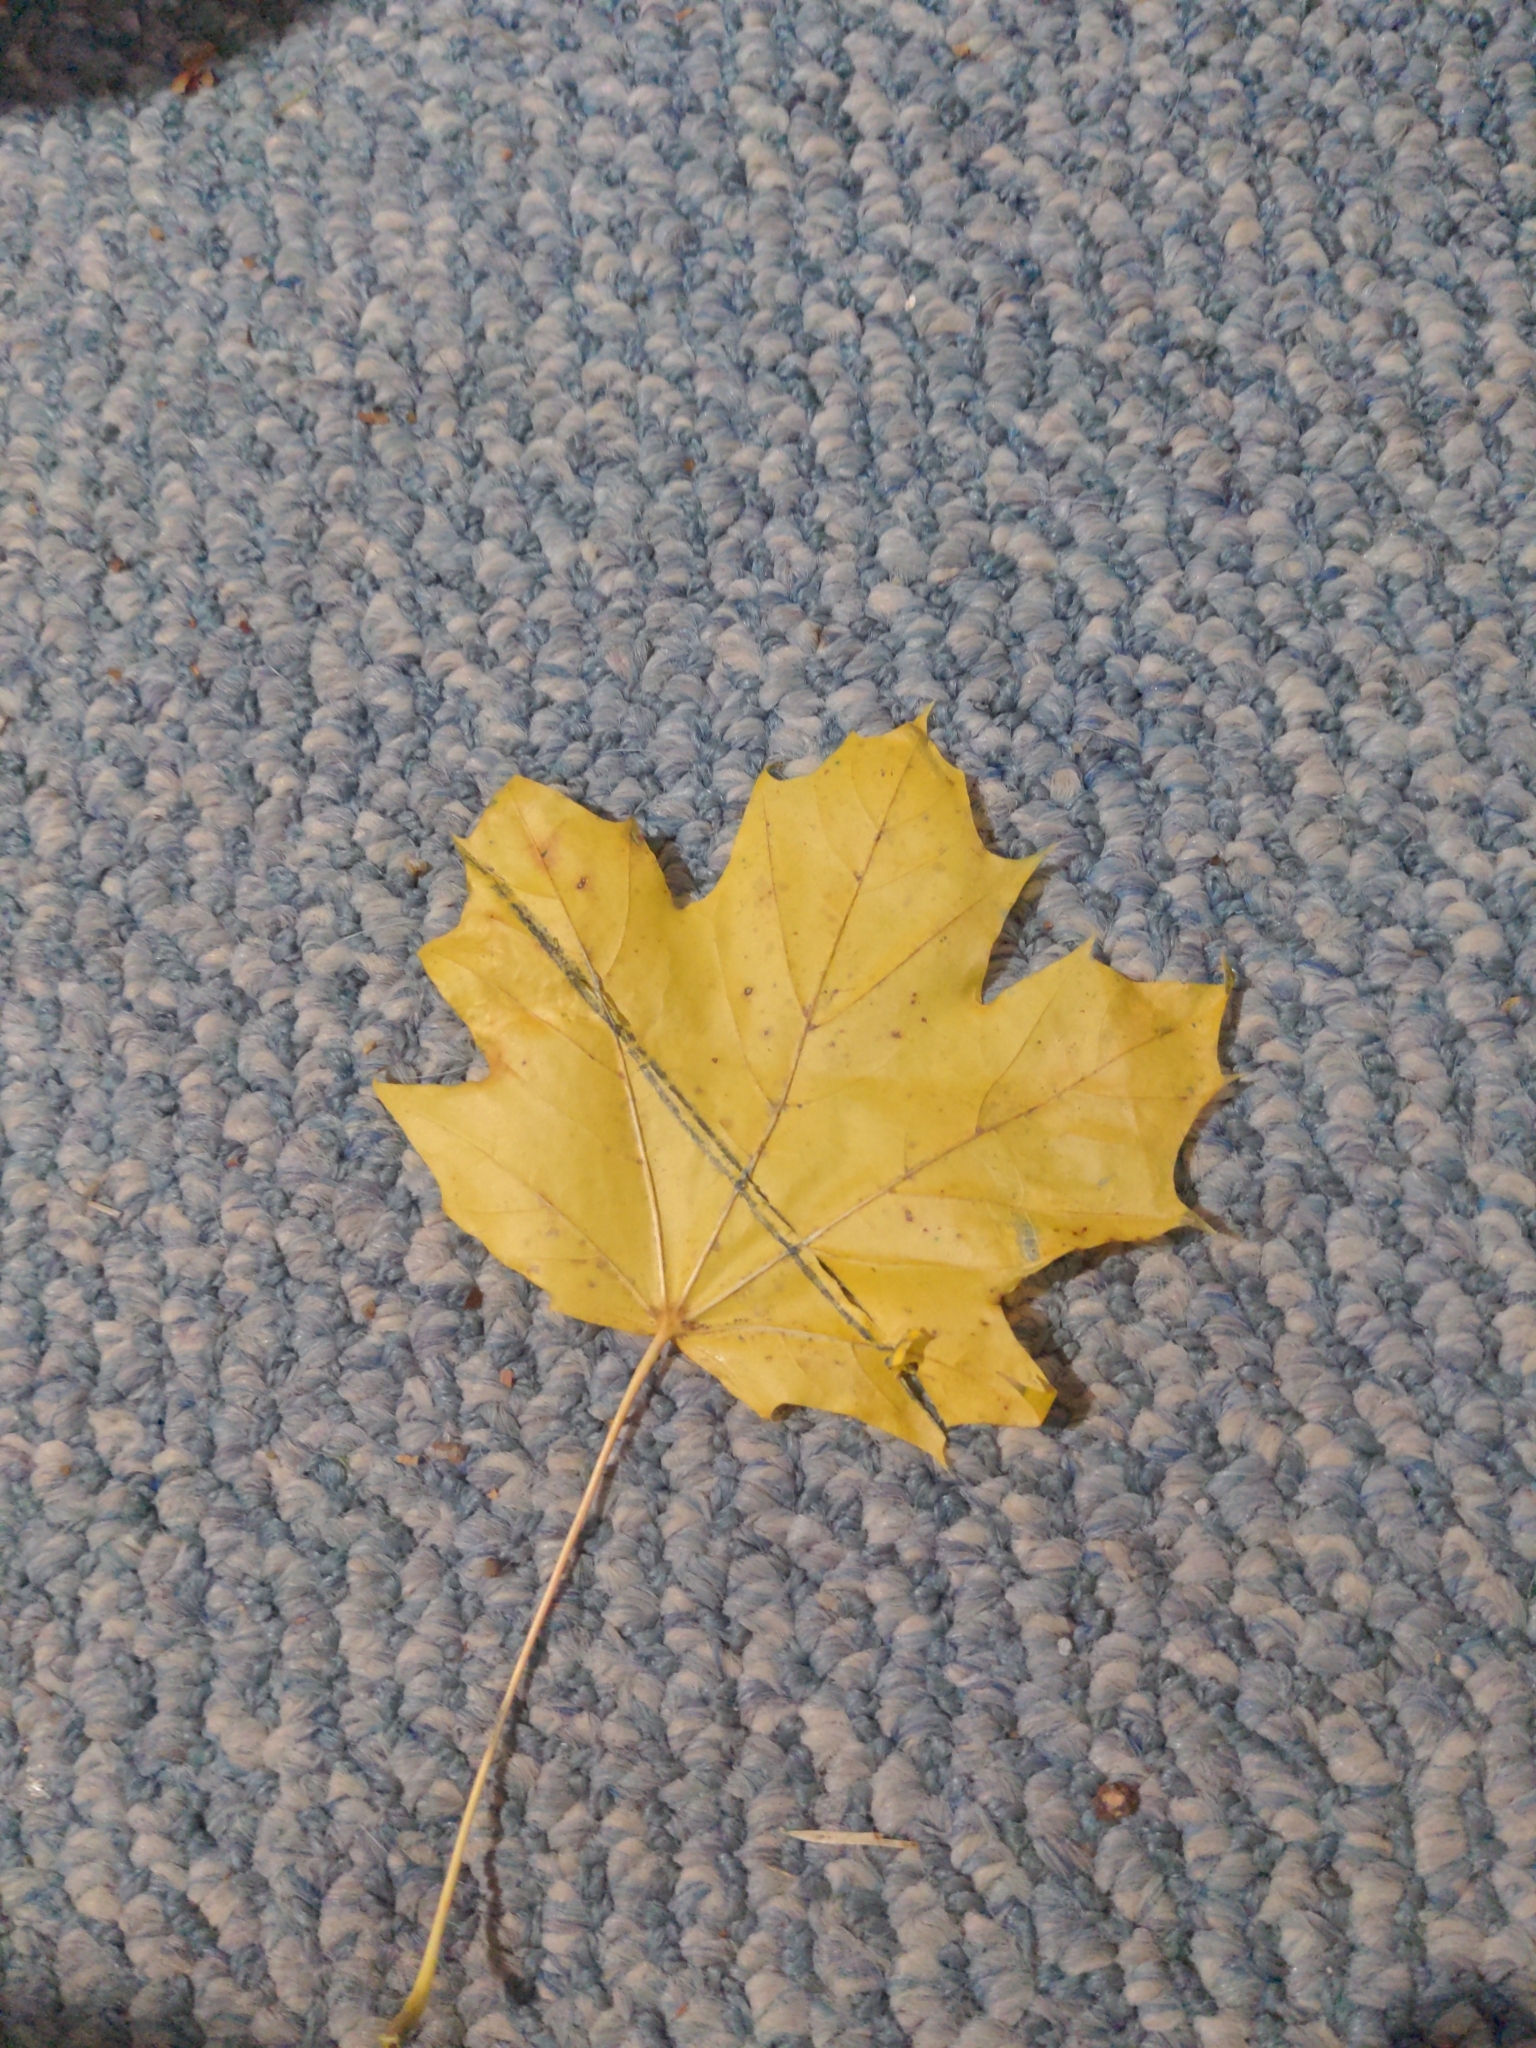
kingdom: Plantae
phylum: Tracheophyta
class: Magnoliopsida
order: Sapindales
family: Sapindaceae
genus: Acer
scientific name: Acer platanoides
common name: Norway maple
